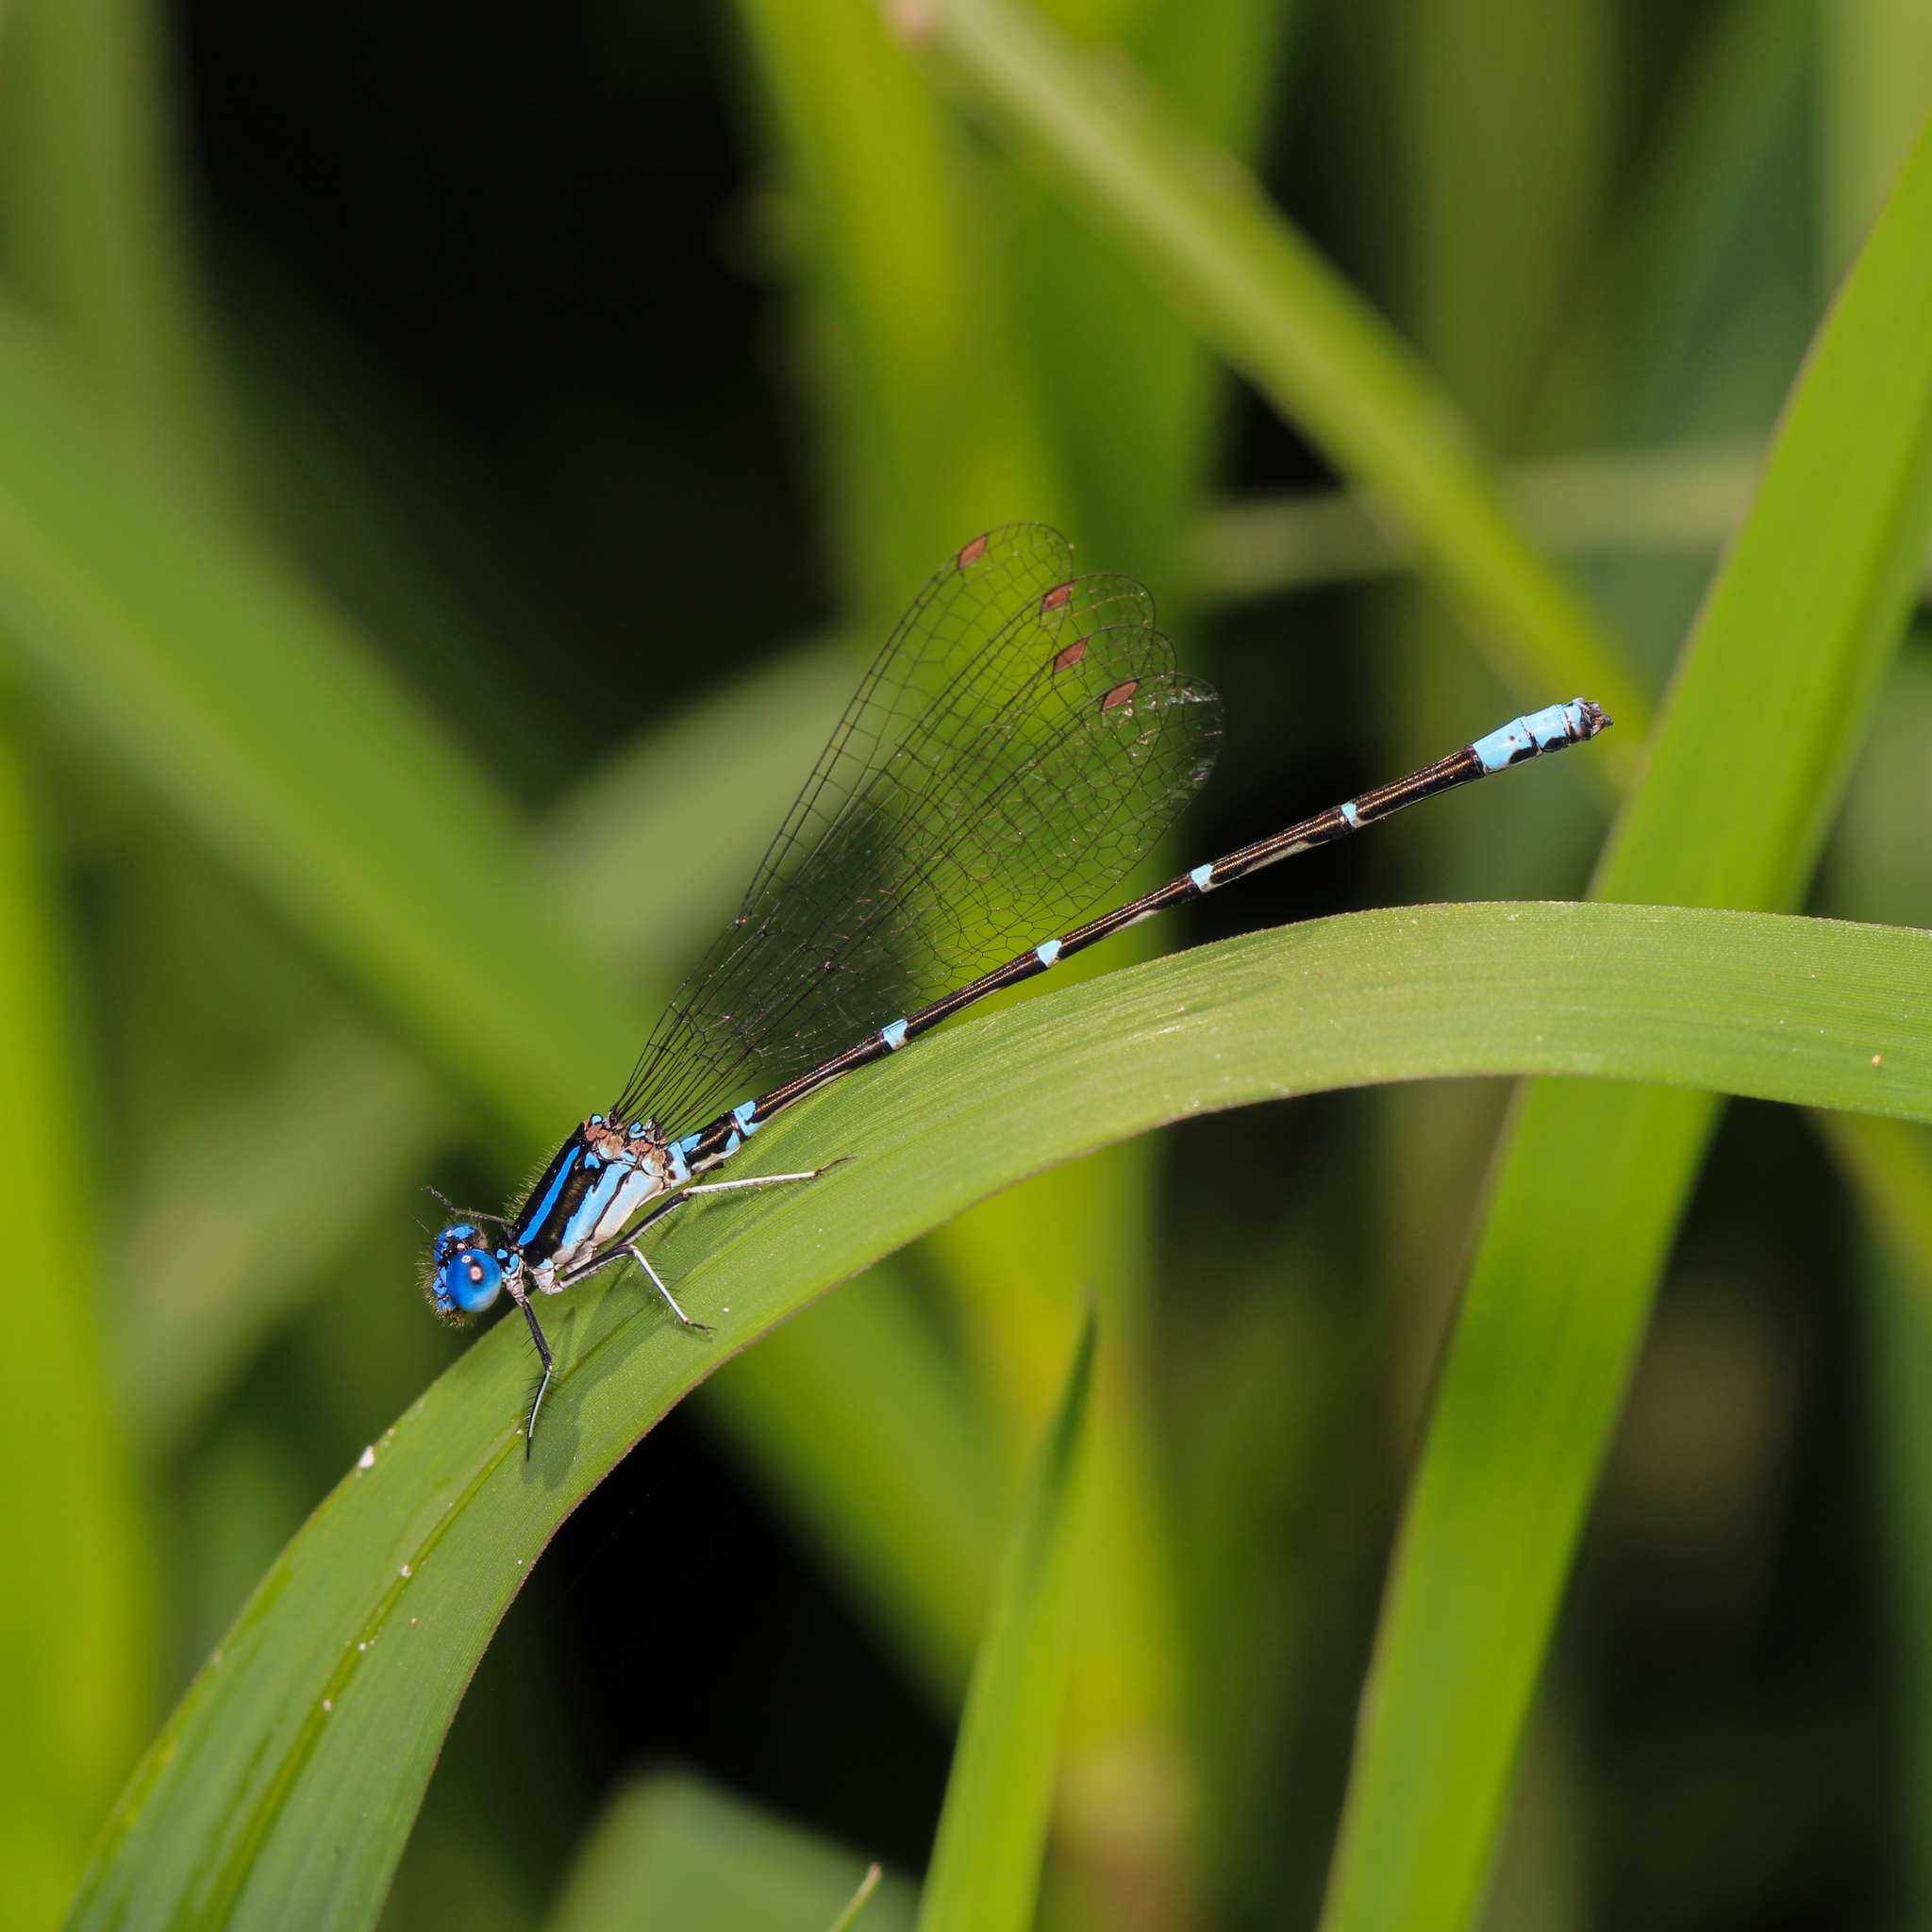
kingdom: Animalia
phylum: Arthropoda
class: Insecta
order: Odonata
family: Coenagrionidae
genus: Argia
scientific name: Argia sedula
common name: Blue-ringed dancer
